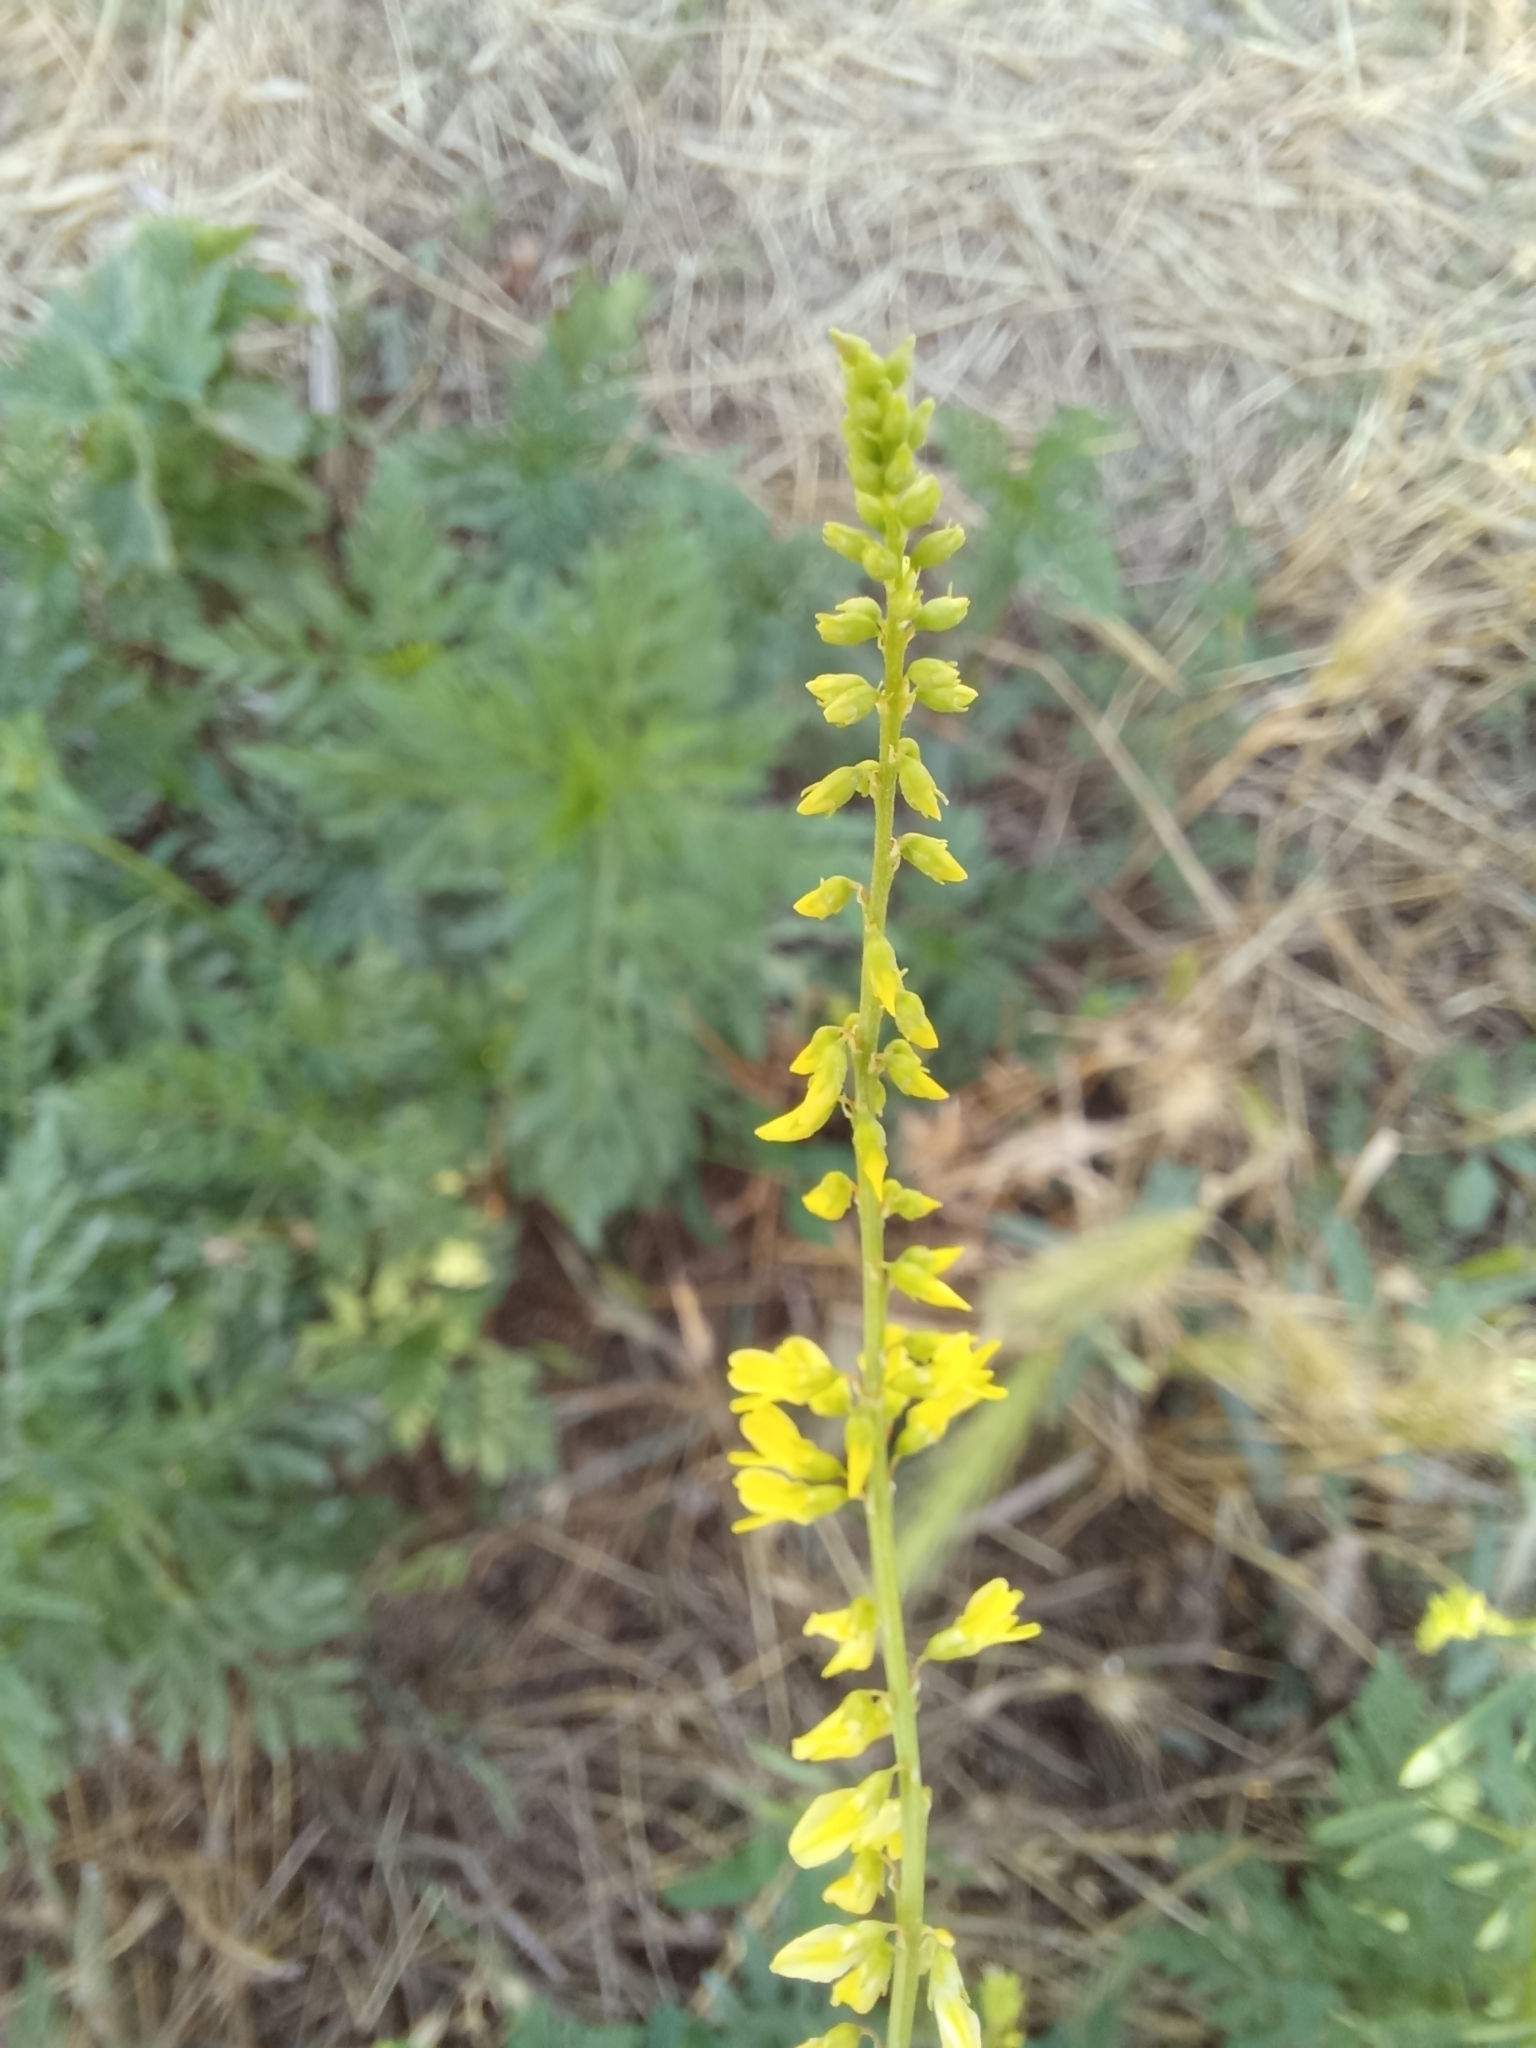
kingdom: Plantae
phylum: Tracheophyta
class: Magnoliopsida
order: Fabales
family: Fabaceae
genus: Melilotus
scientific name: Melilotus officinalis
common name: Sweetclover
